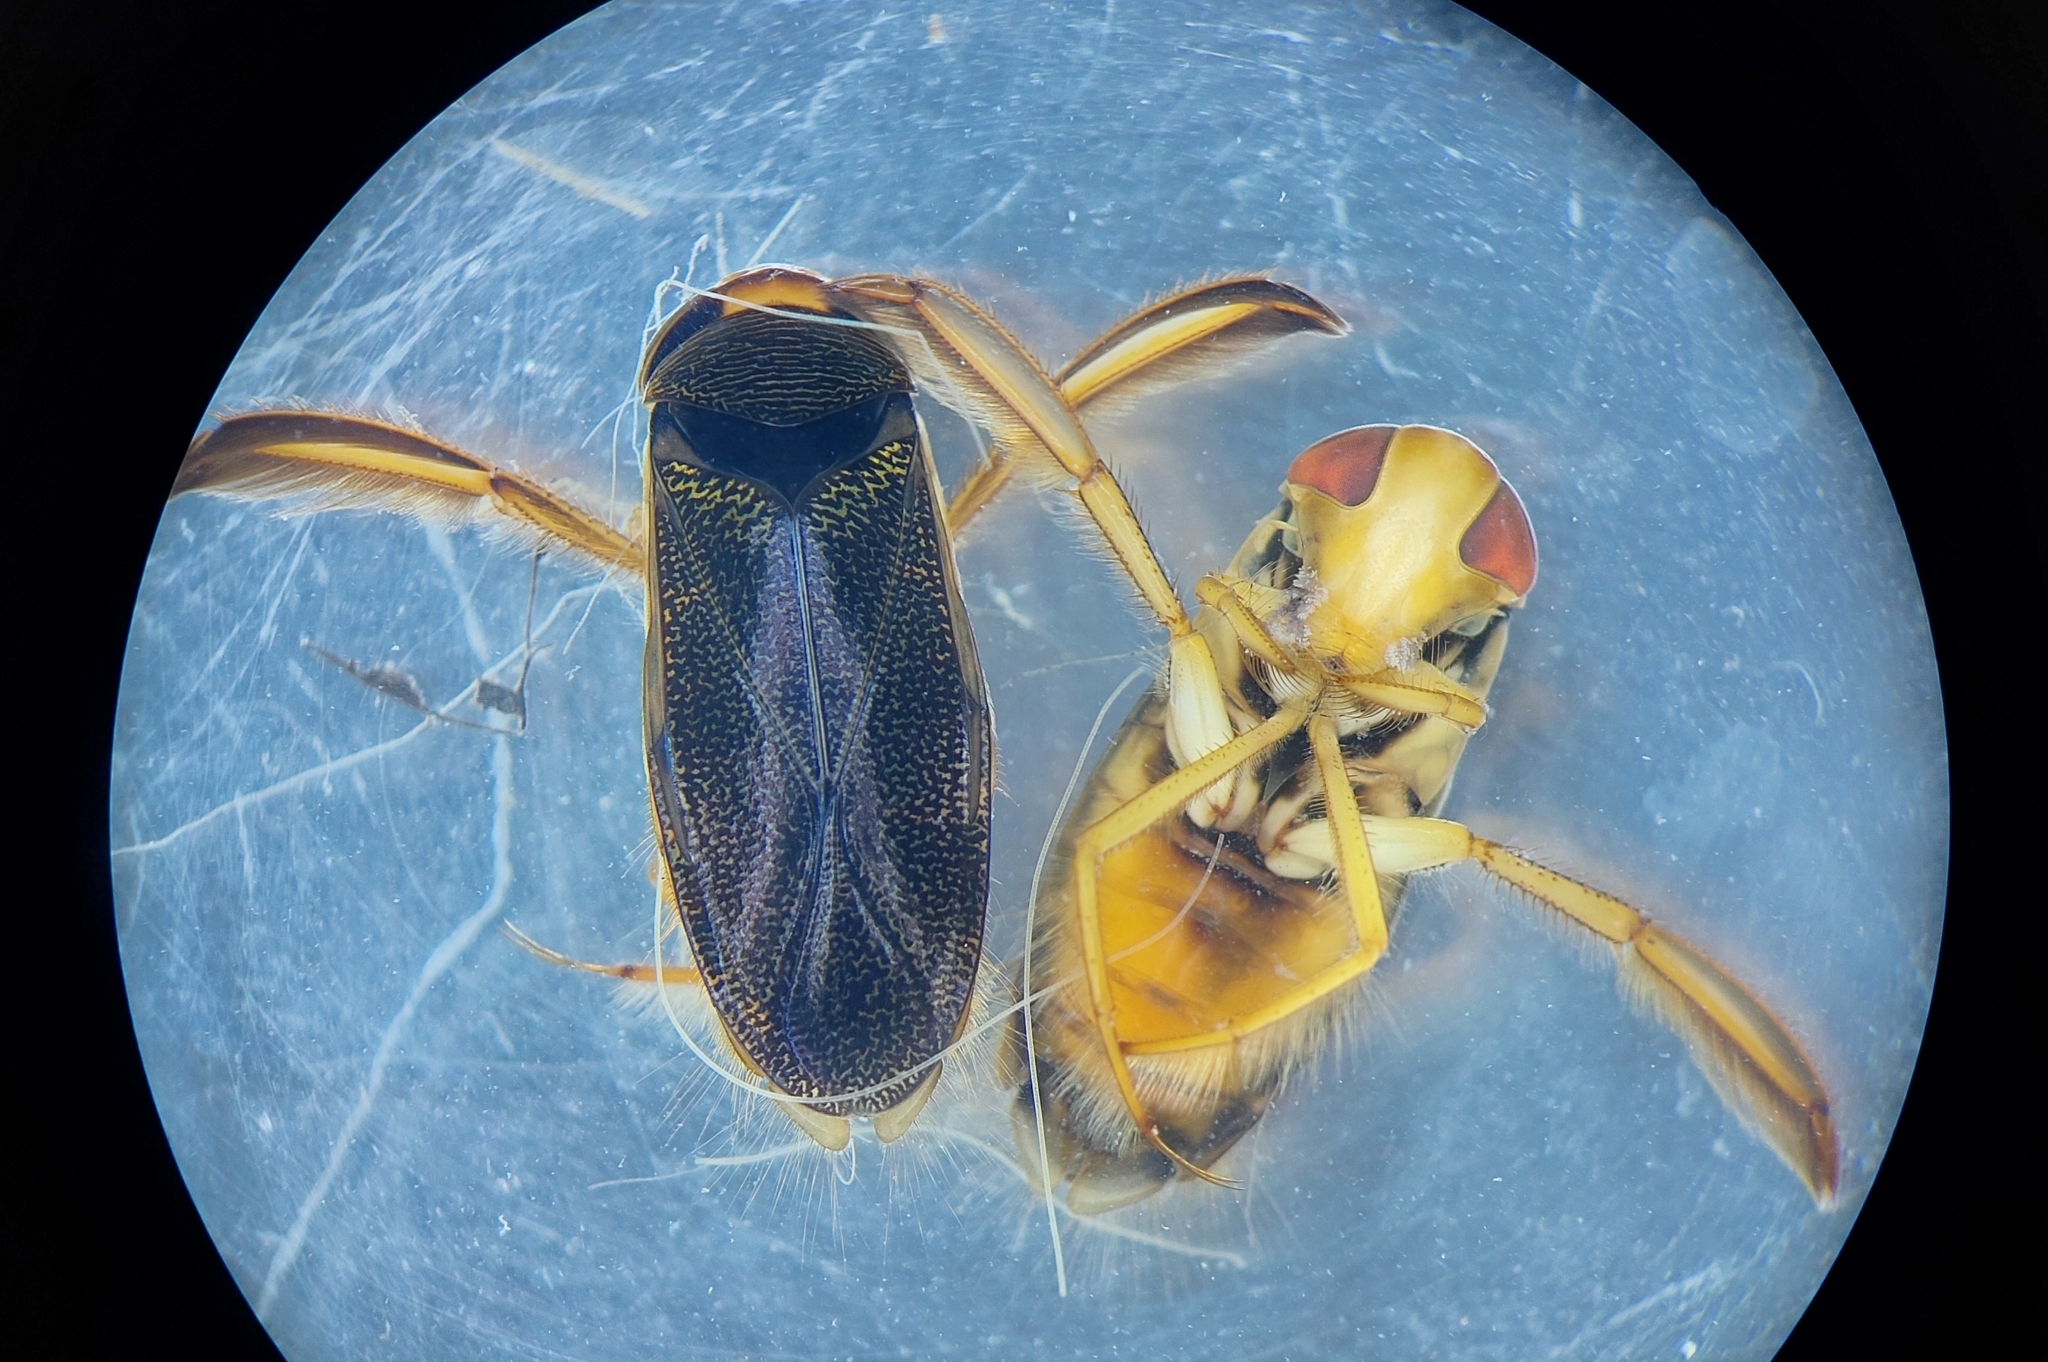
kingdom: Animalia
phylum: Arthropoda
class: Insecta
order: Hemiptera
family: Corixidae
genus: Corixa
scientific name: Corixa punctata
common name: Punctate corixa
